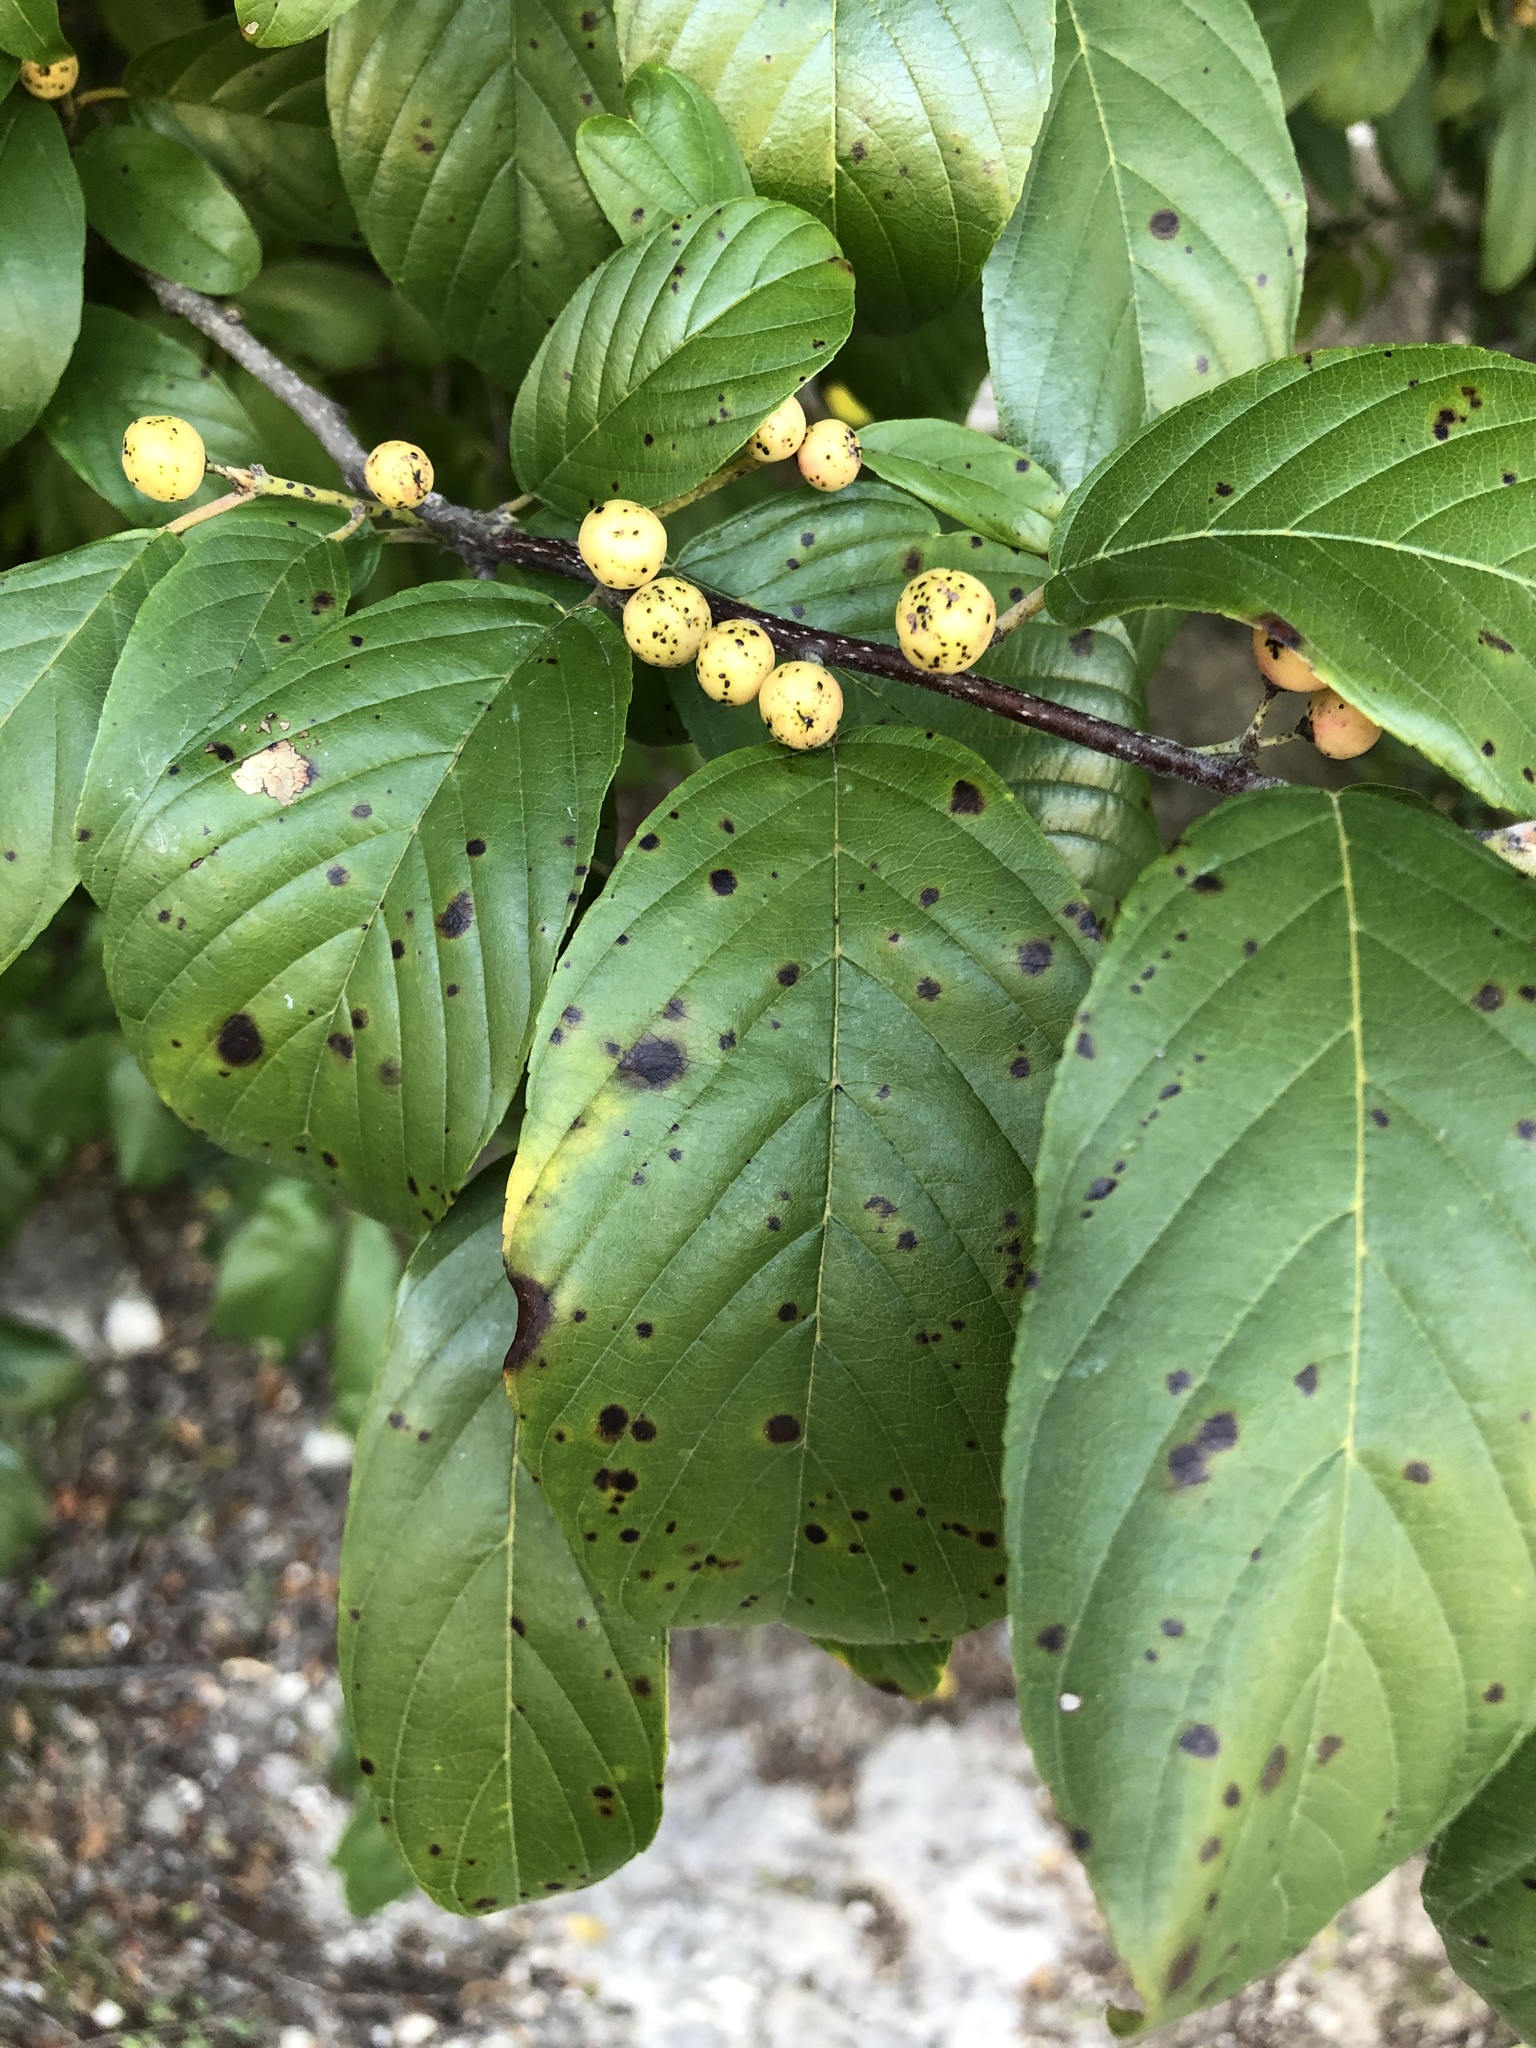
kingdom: Plantae
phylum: Tracheophyta
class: Magnoliopsida
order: Rosales
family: Rhamnaceae
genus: Frangula
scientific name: Frangula caroliniana
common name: Carolina buckthorn
